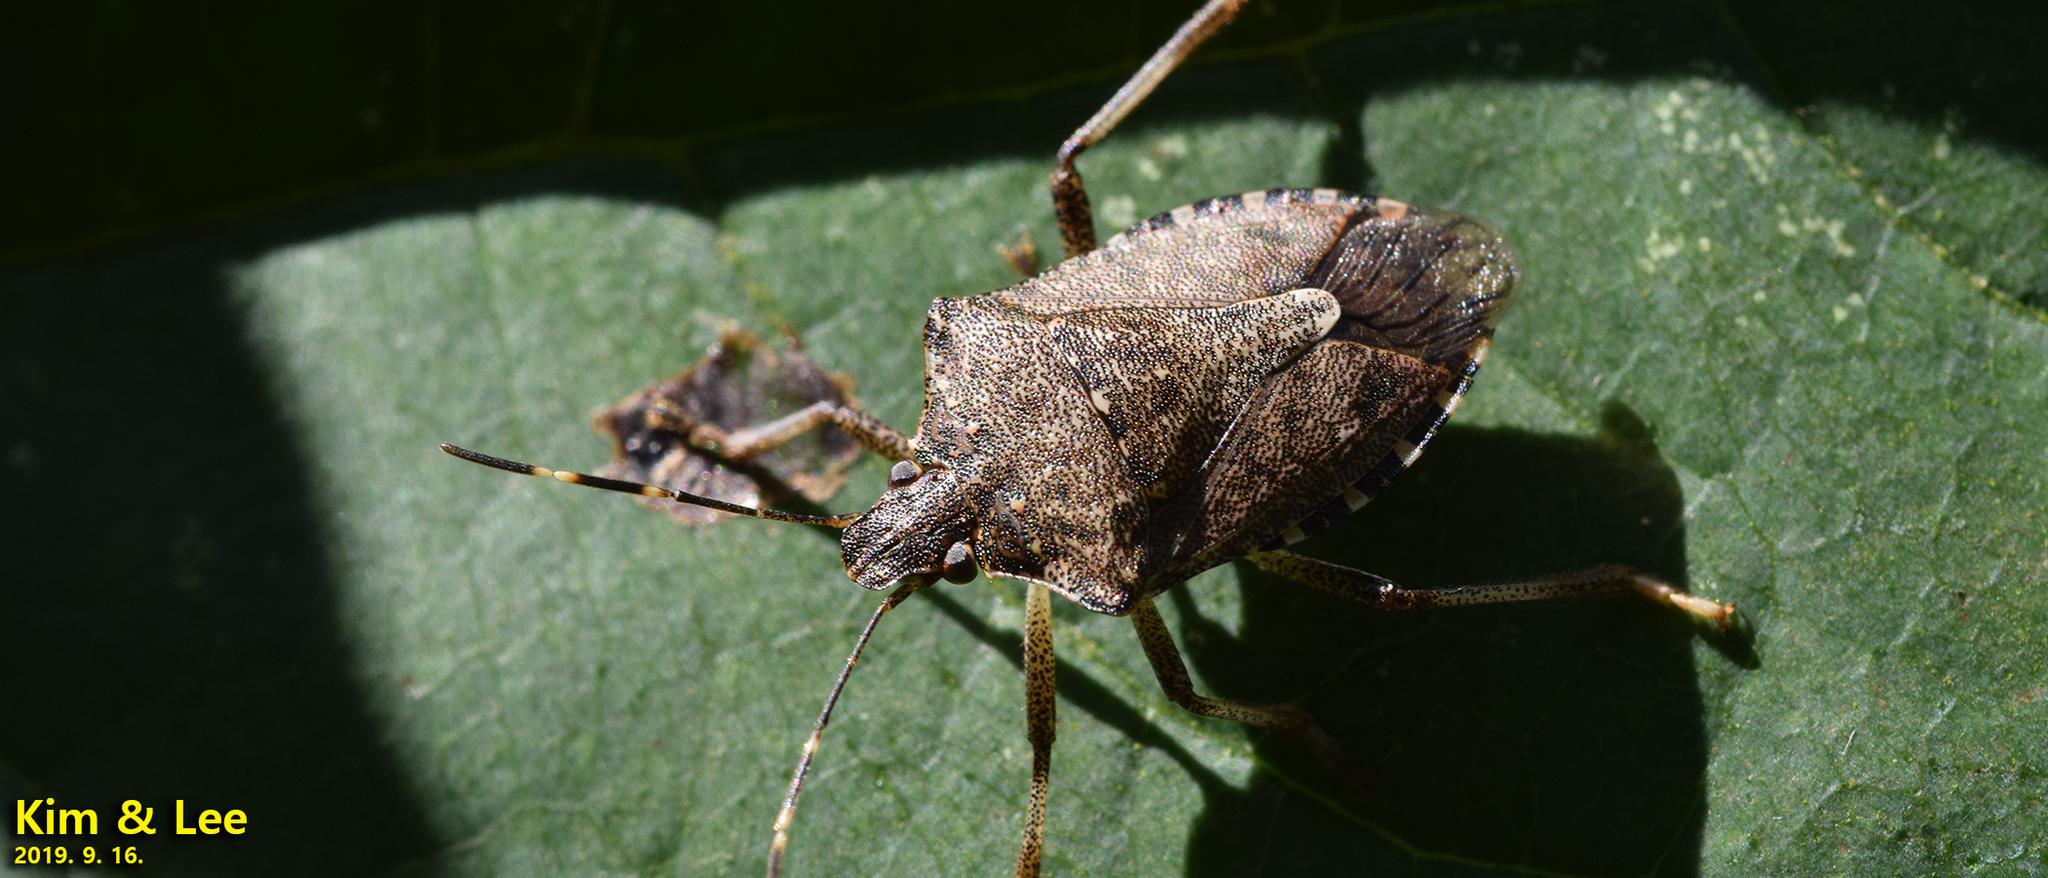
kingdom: Animalia
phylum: Arthropoda
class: Insecta
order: Hemiptera
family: Pentatomidae
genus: Halyomorpha
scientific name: Halyomorpha halys
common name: Brown marmorated stink bug
